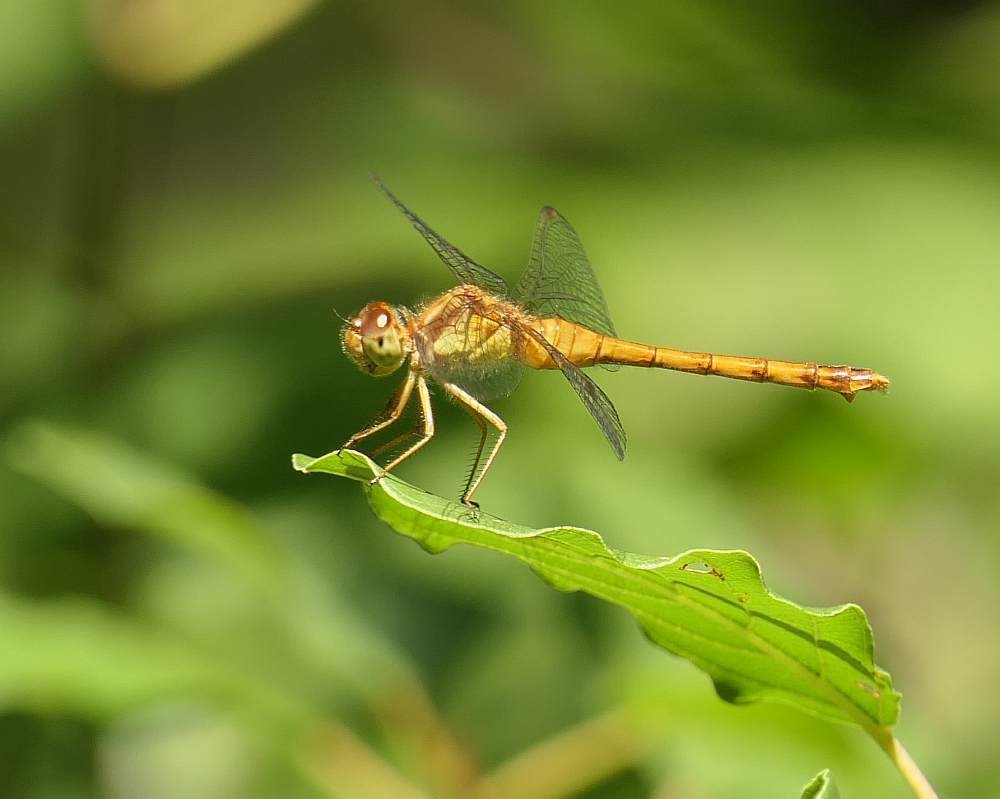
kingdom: Animalia
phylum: Arthropoda
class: Insecta
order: Odonata
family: Libellulidae
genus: Sympetrum
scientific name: Sympetrum vicinum
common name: Autumn meadowhawk
